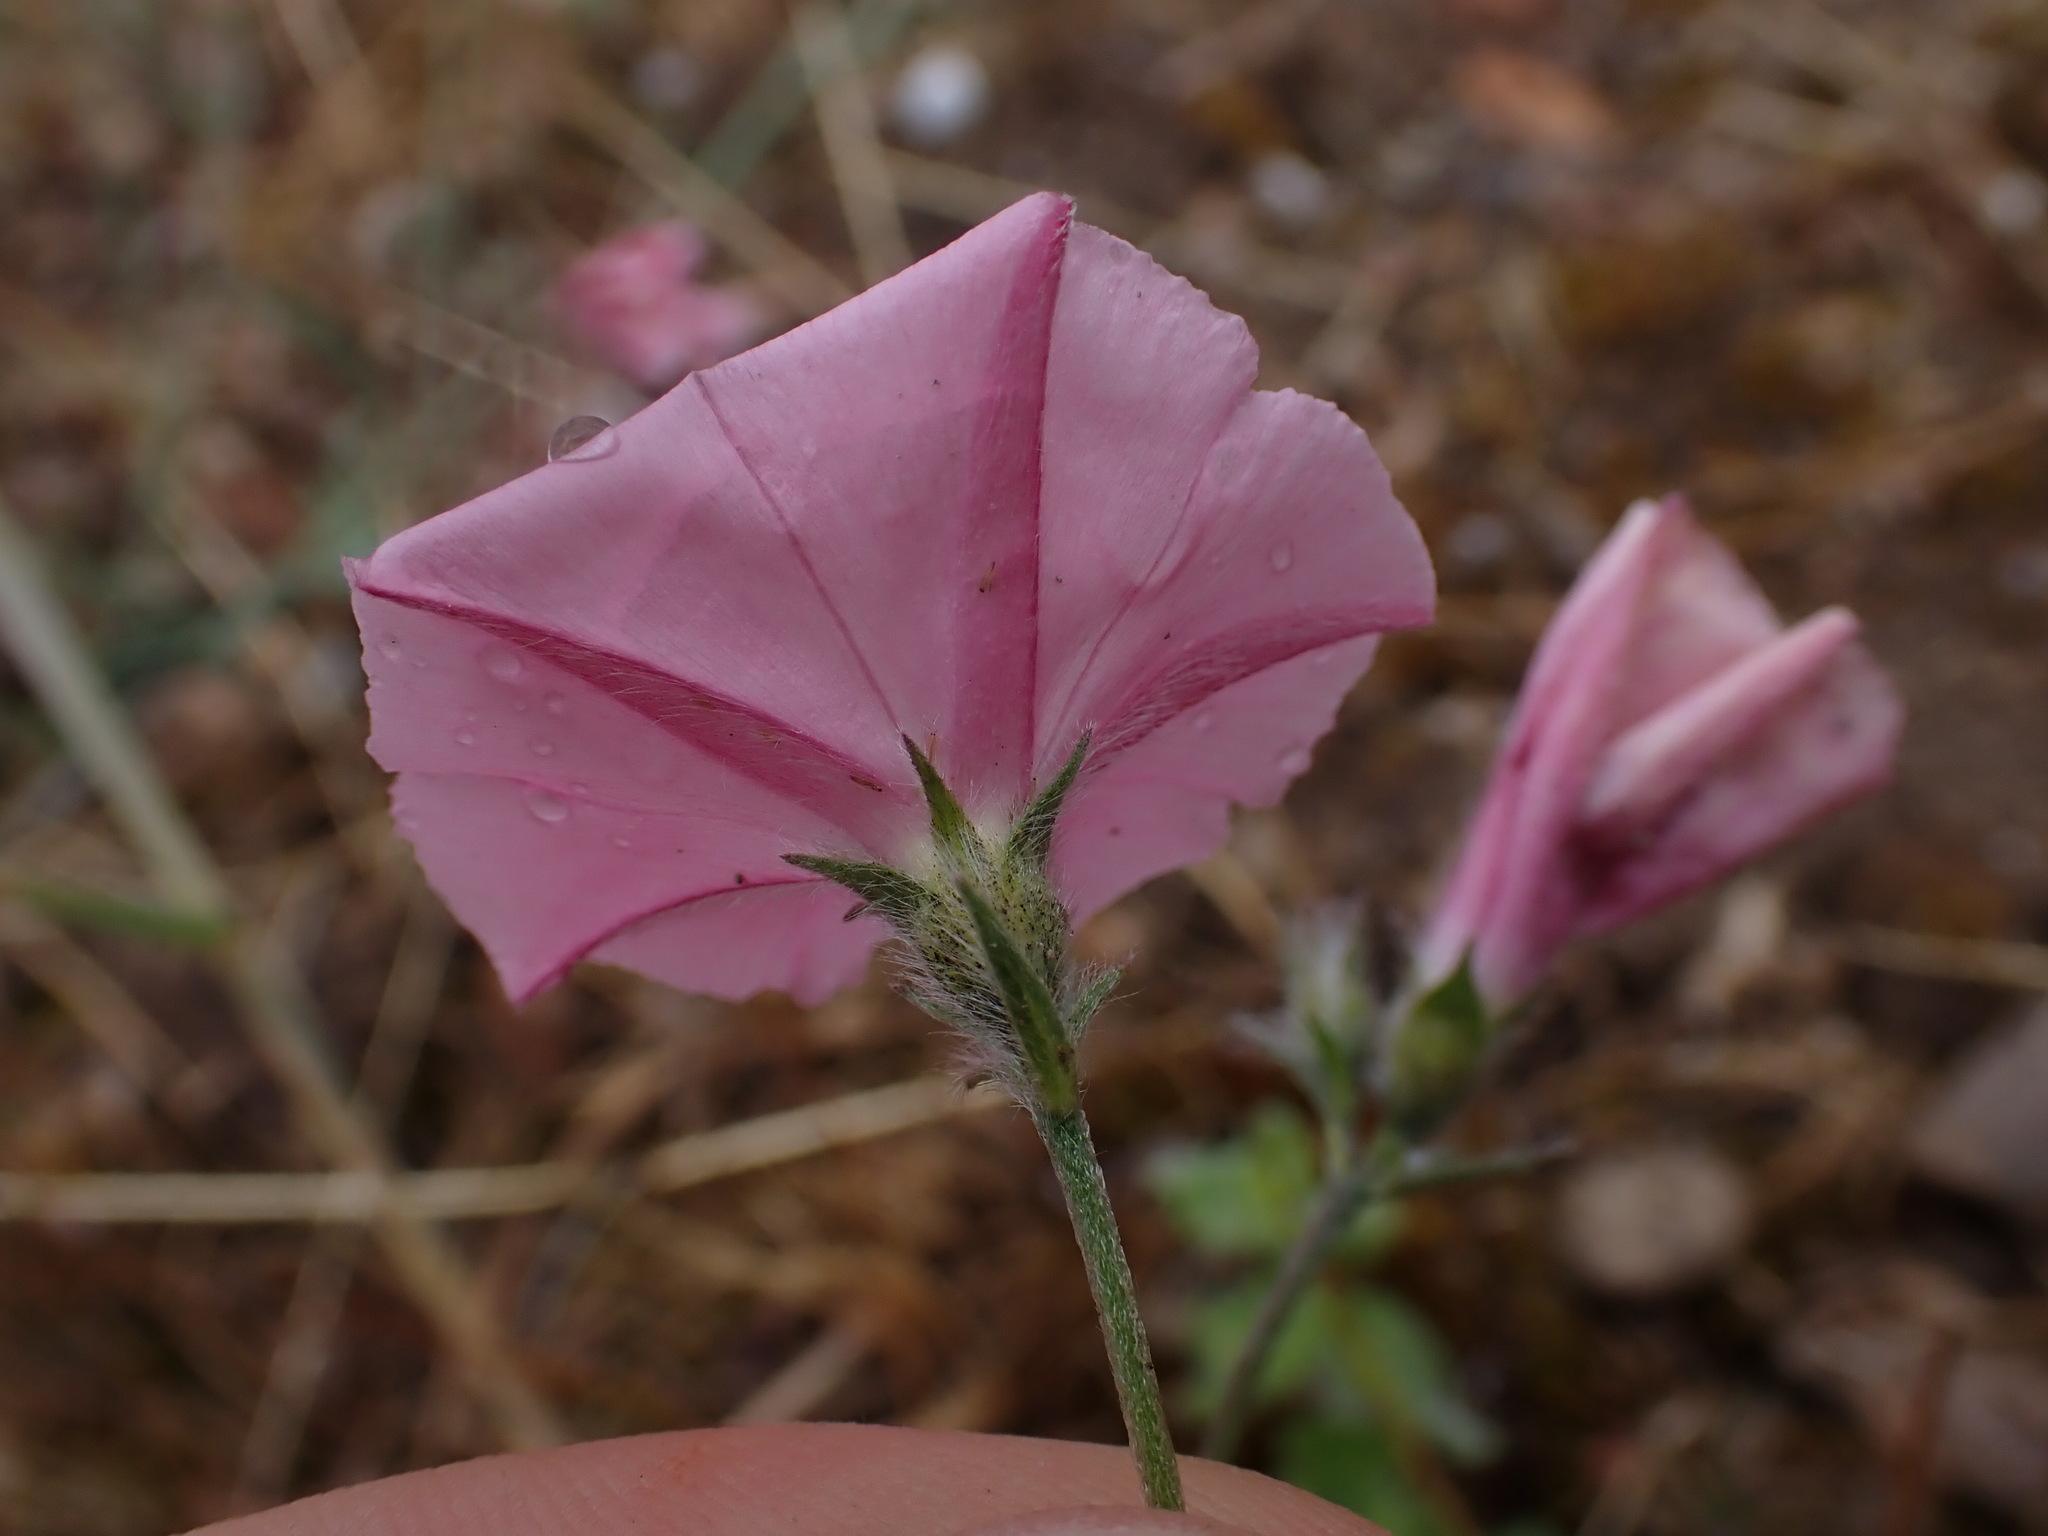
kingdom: Plantae
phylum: Tracheophyta
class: Magnoliopsida
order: Solanales
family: Convolvulaceae
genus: Convolvulus
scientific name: Convolvulus cantabrica
